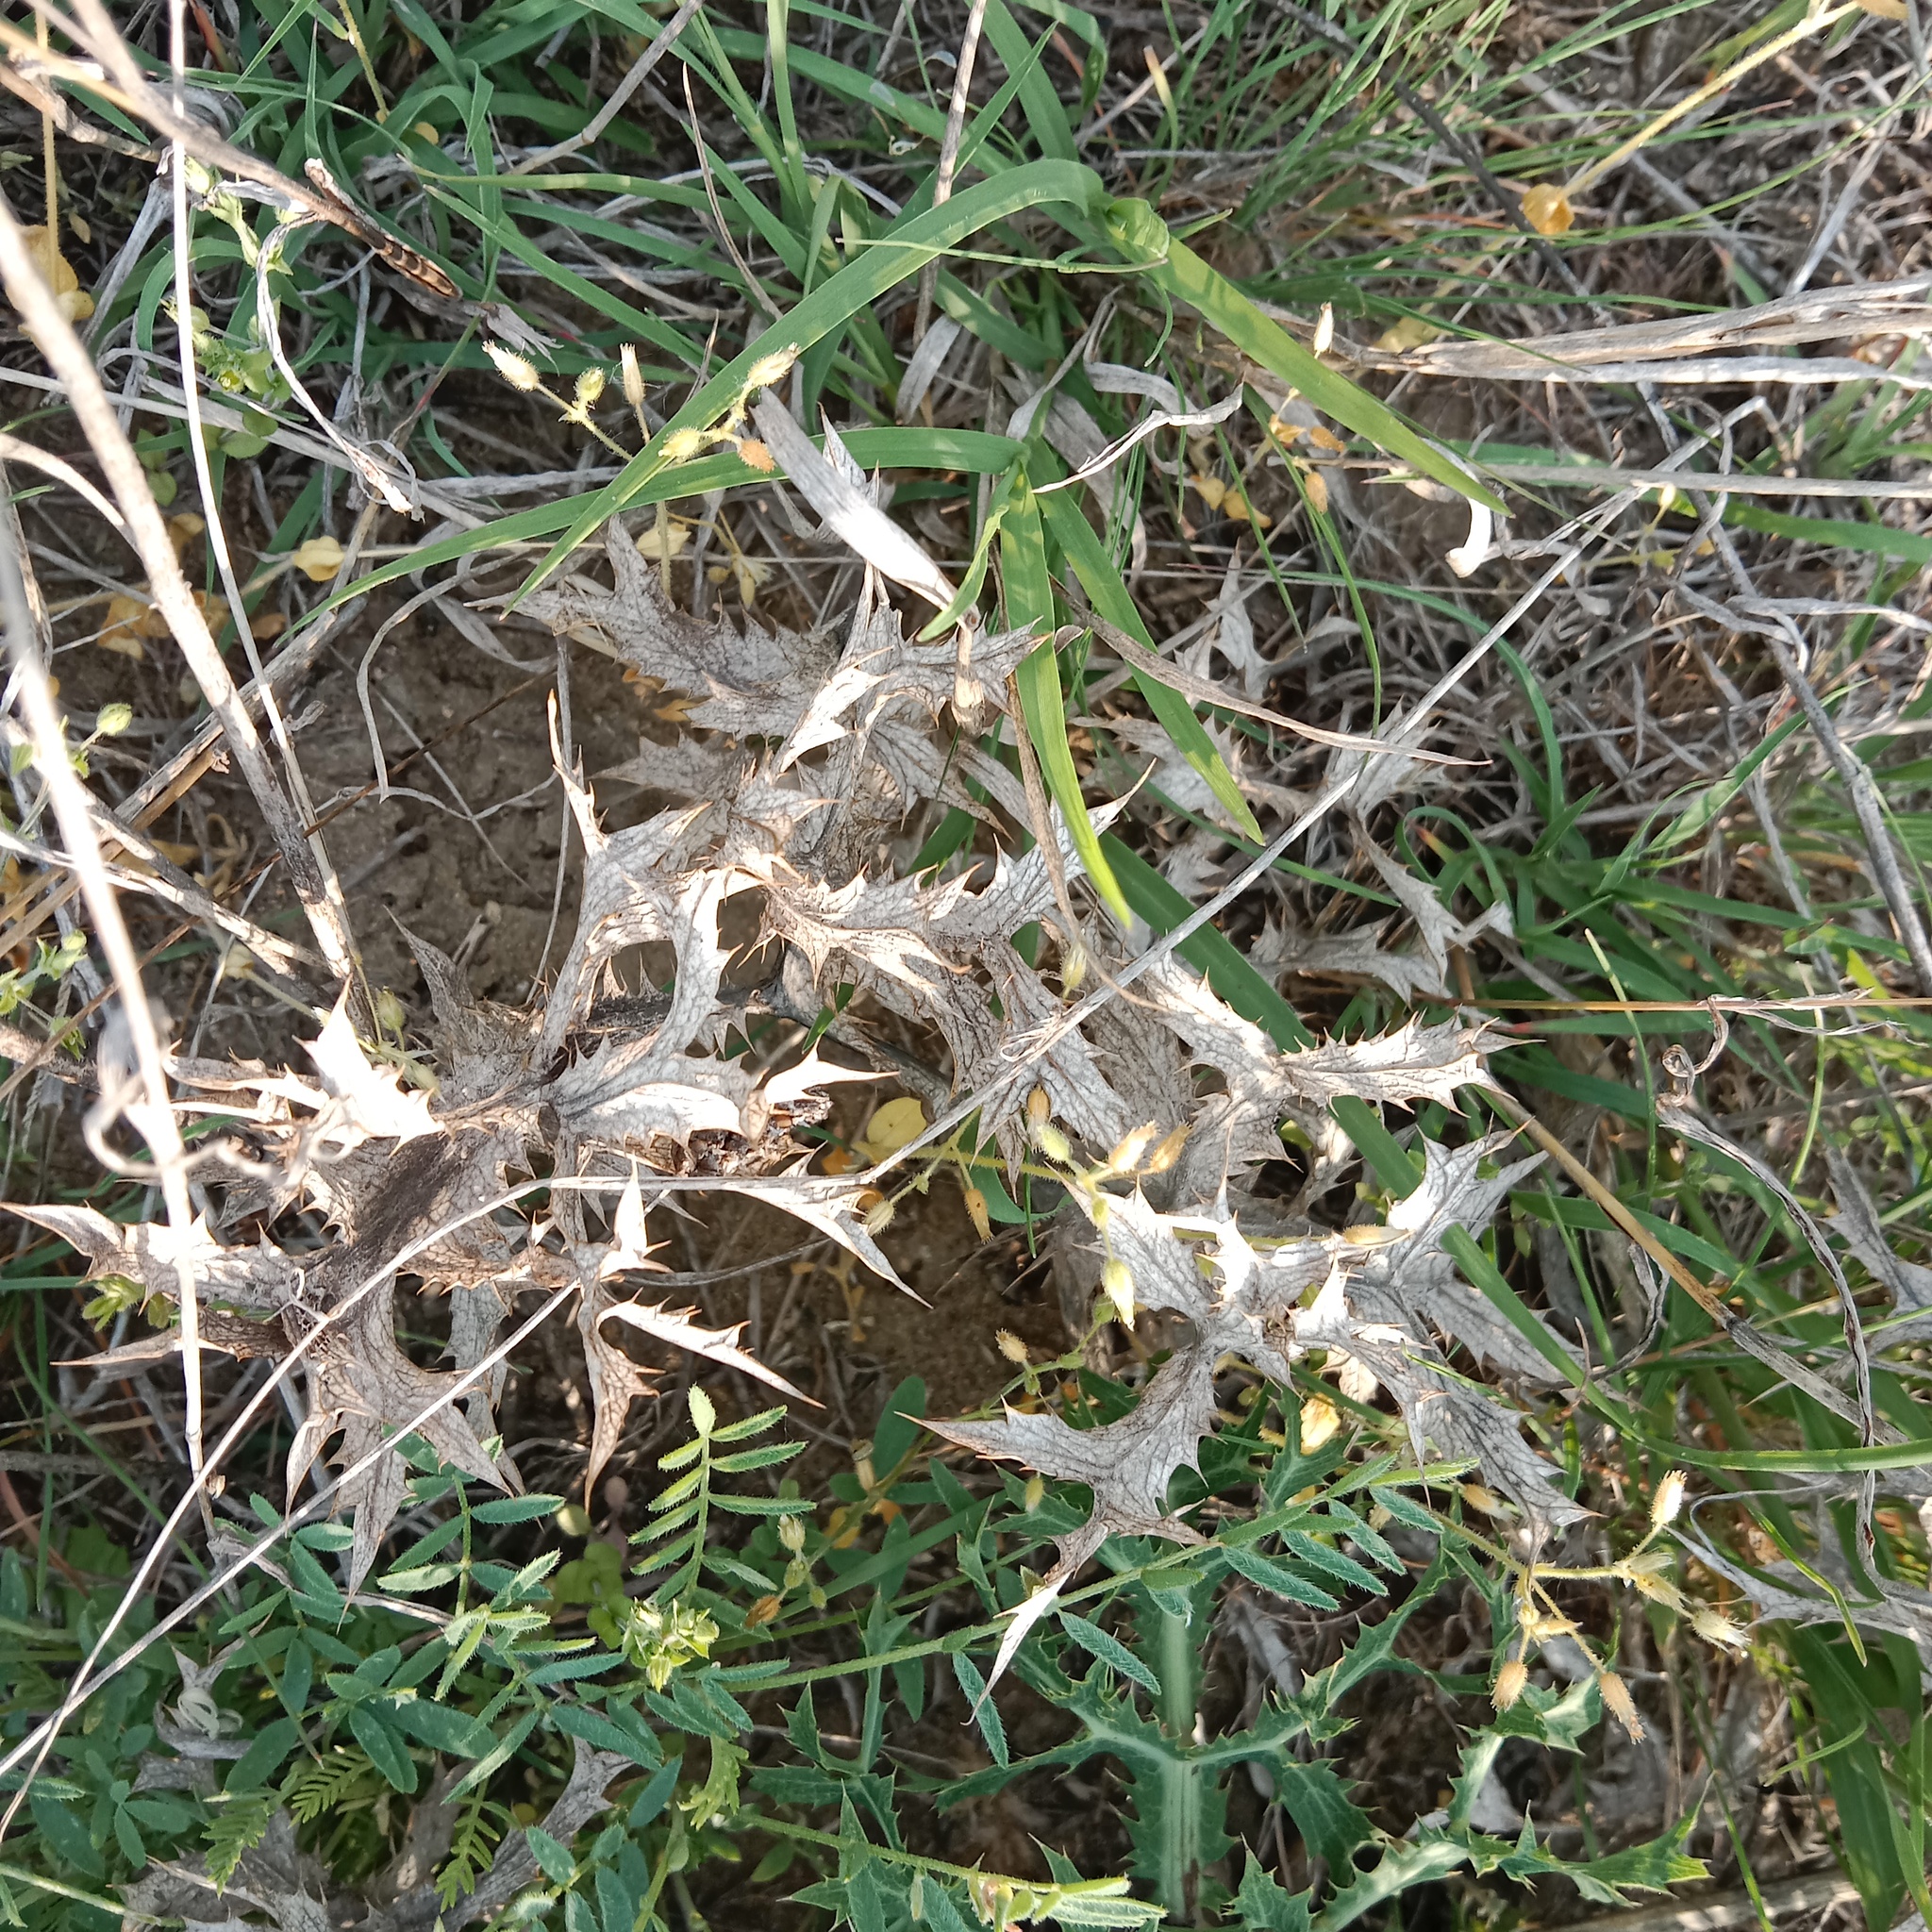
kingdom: Plantae
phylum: Tracheophyta
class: Magnoliopsida
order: Apiales
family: Apiaceae
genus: Eryngium
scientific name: Eryngium campestre
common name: Field eryngo
